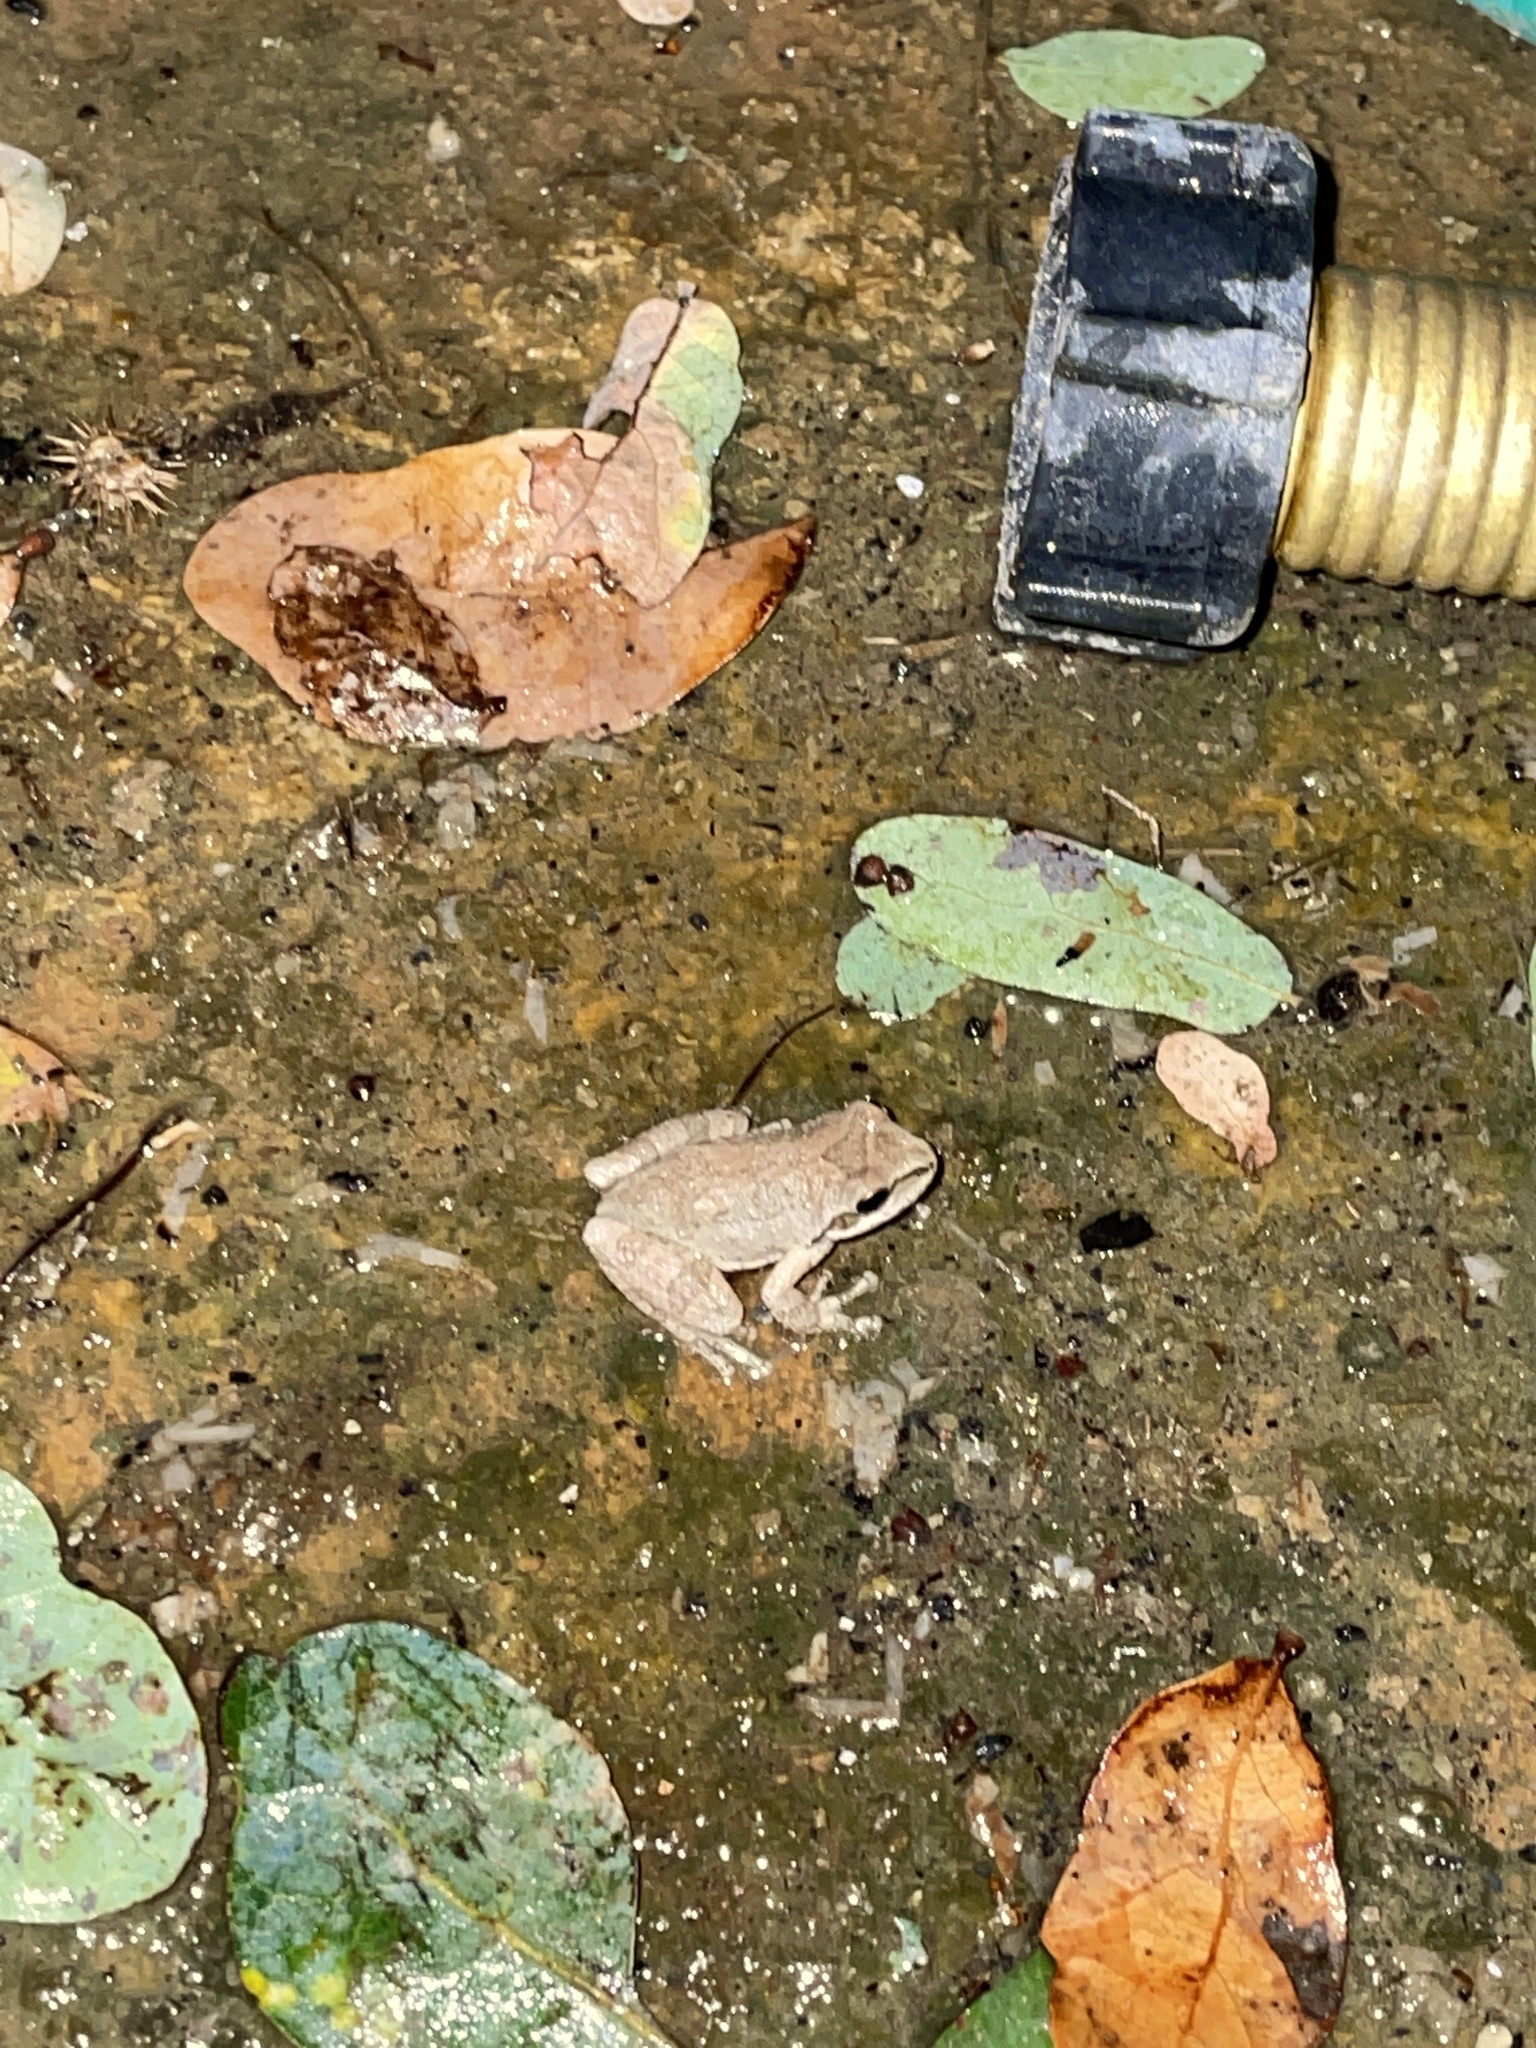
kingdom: Animalia
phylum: Chordata
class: Amphibia
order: Anura
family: Hylidae
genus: Pseudacris
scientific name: Pseudacris regilla
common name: Pacific chorus frog
